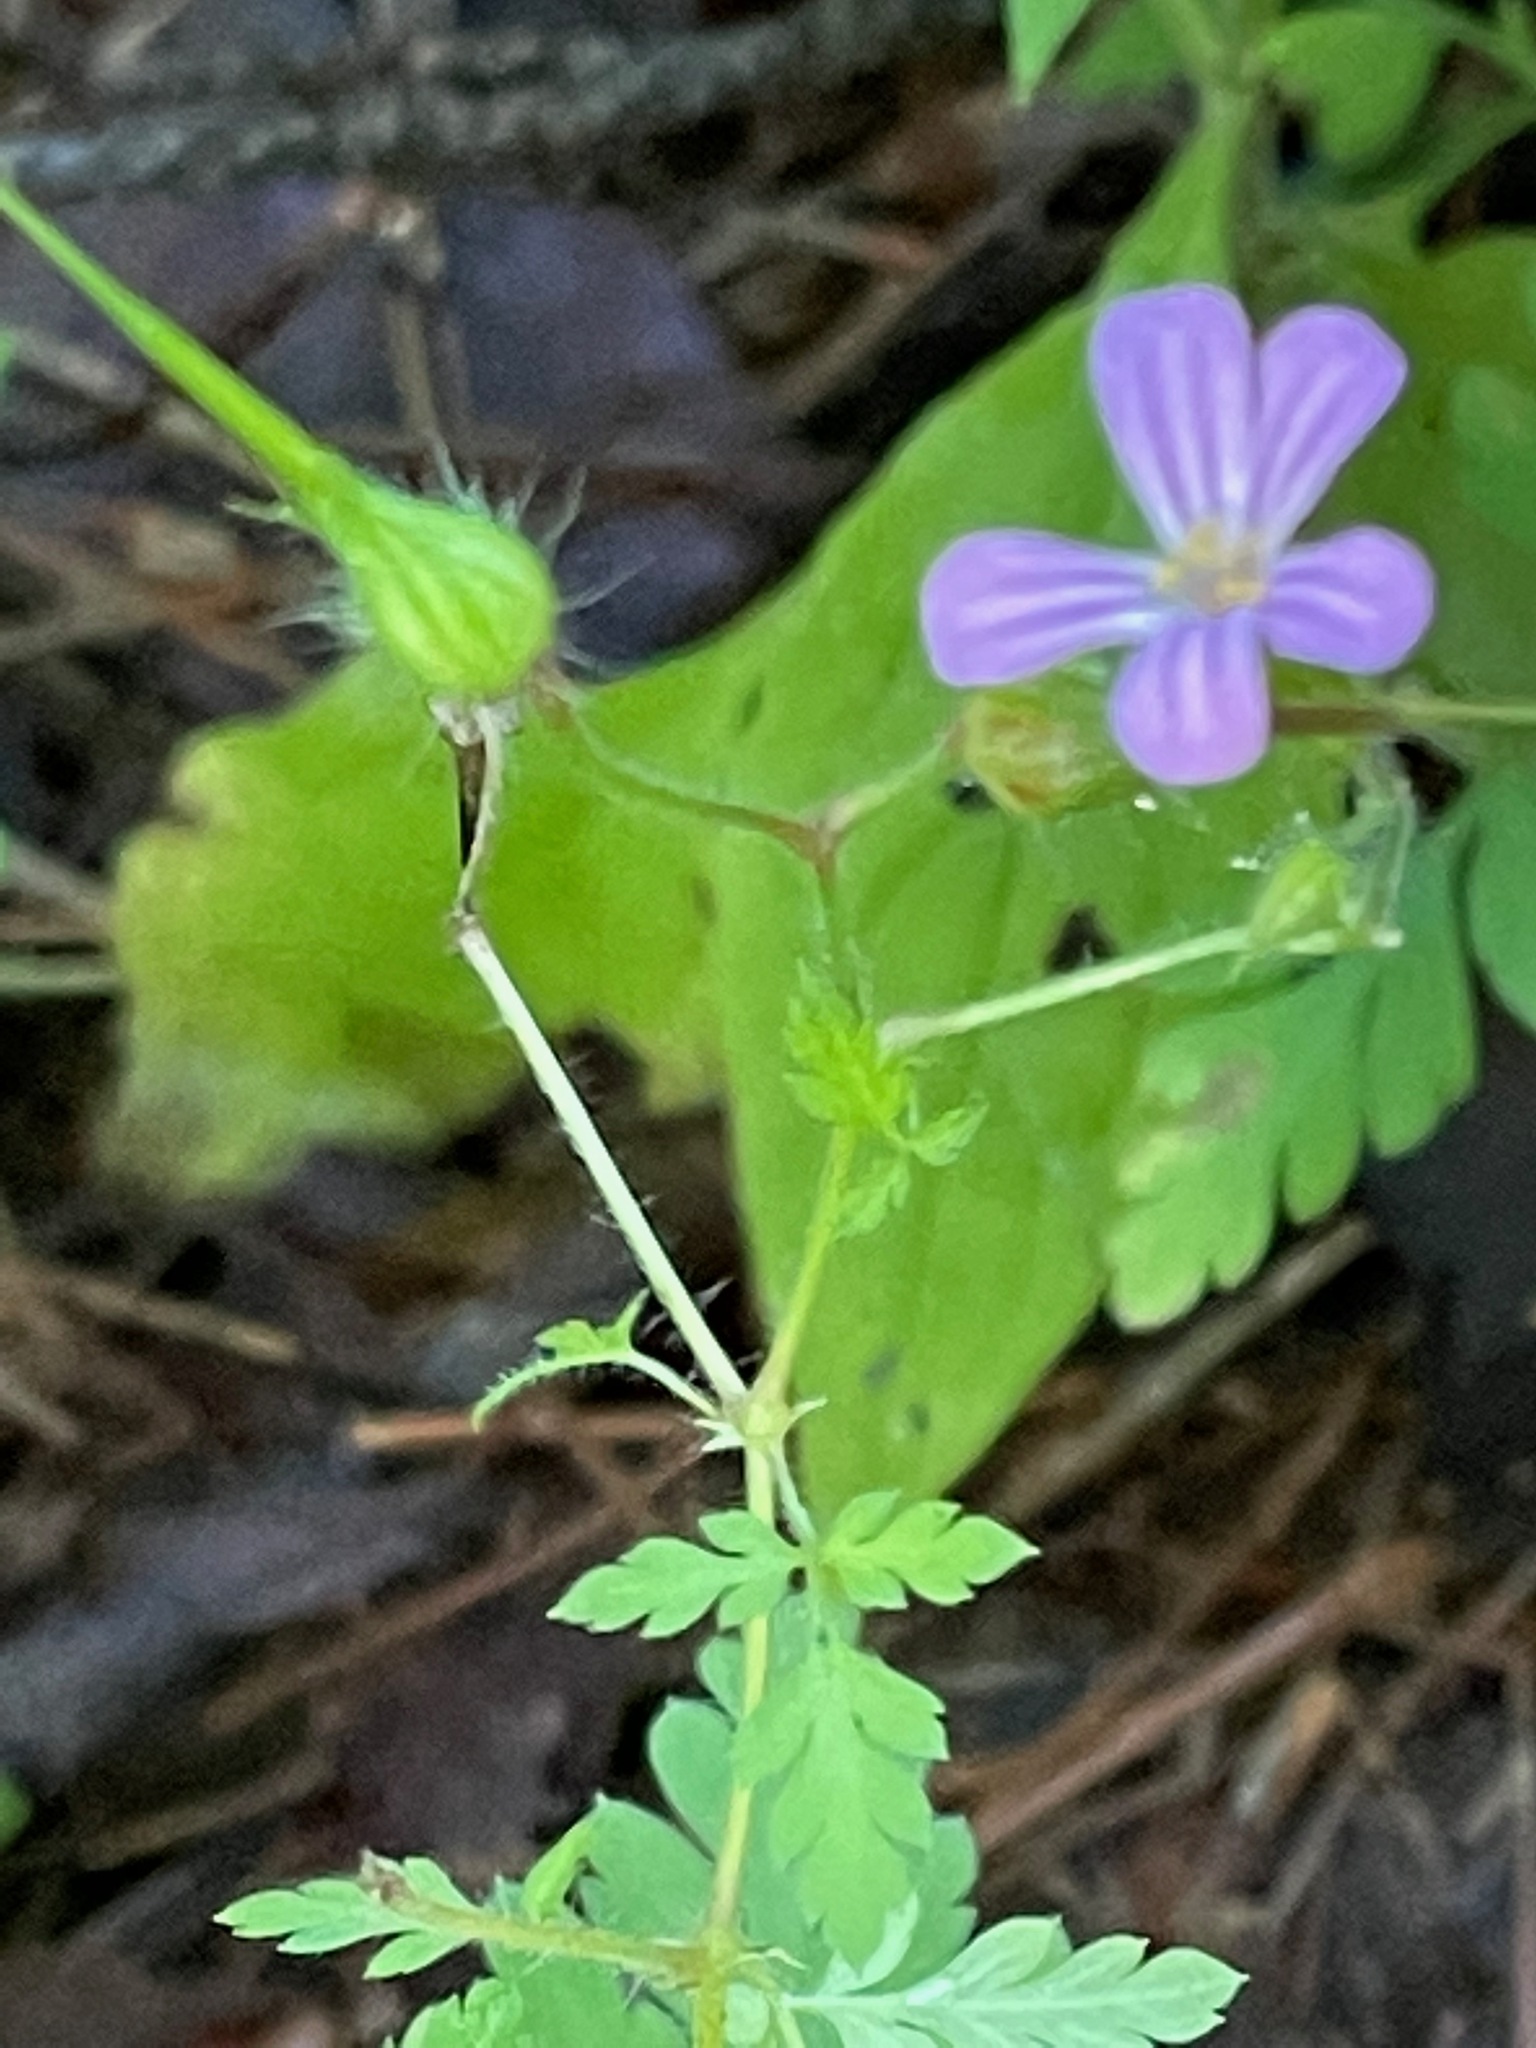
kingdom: Plantae
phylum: Tracheophyta
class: Magnoliopsida
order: Geraniales
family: Geraniaceae
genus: Geranium
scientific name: Geranium robertianum
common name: Herb-robert
